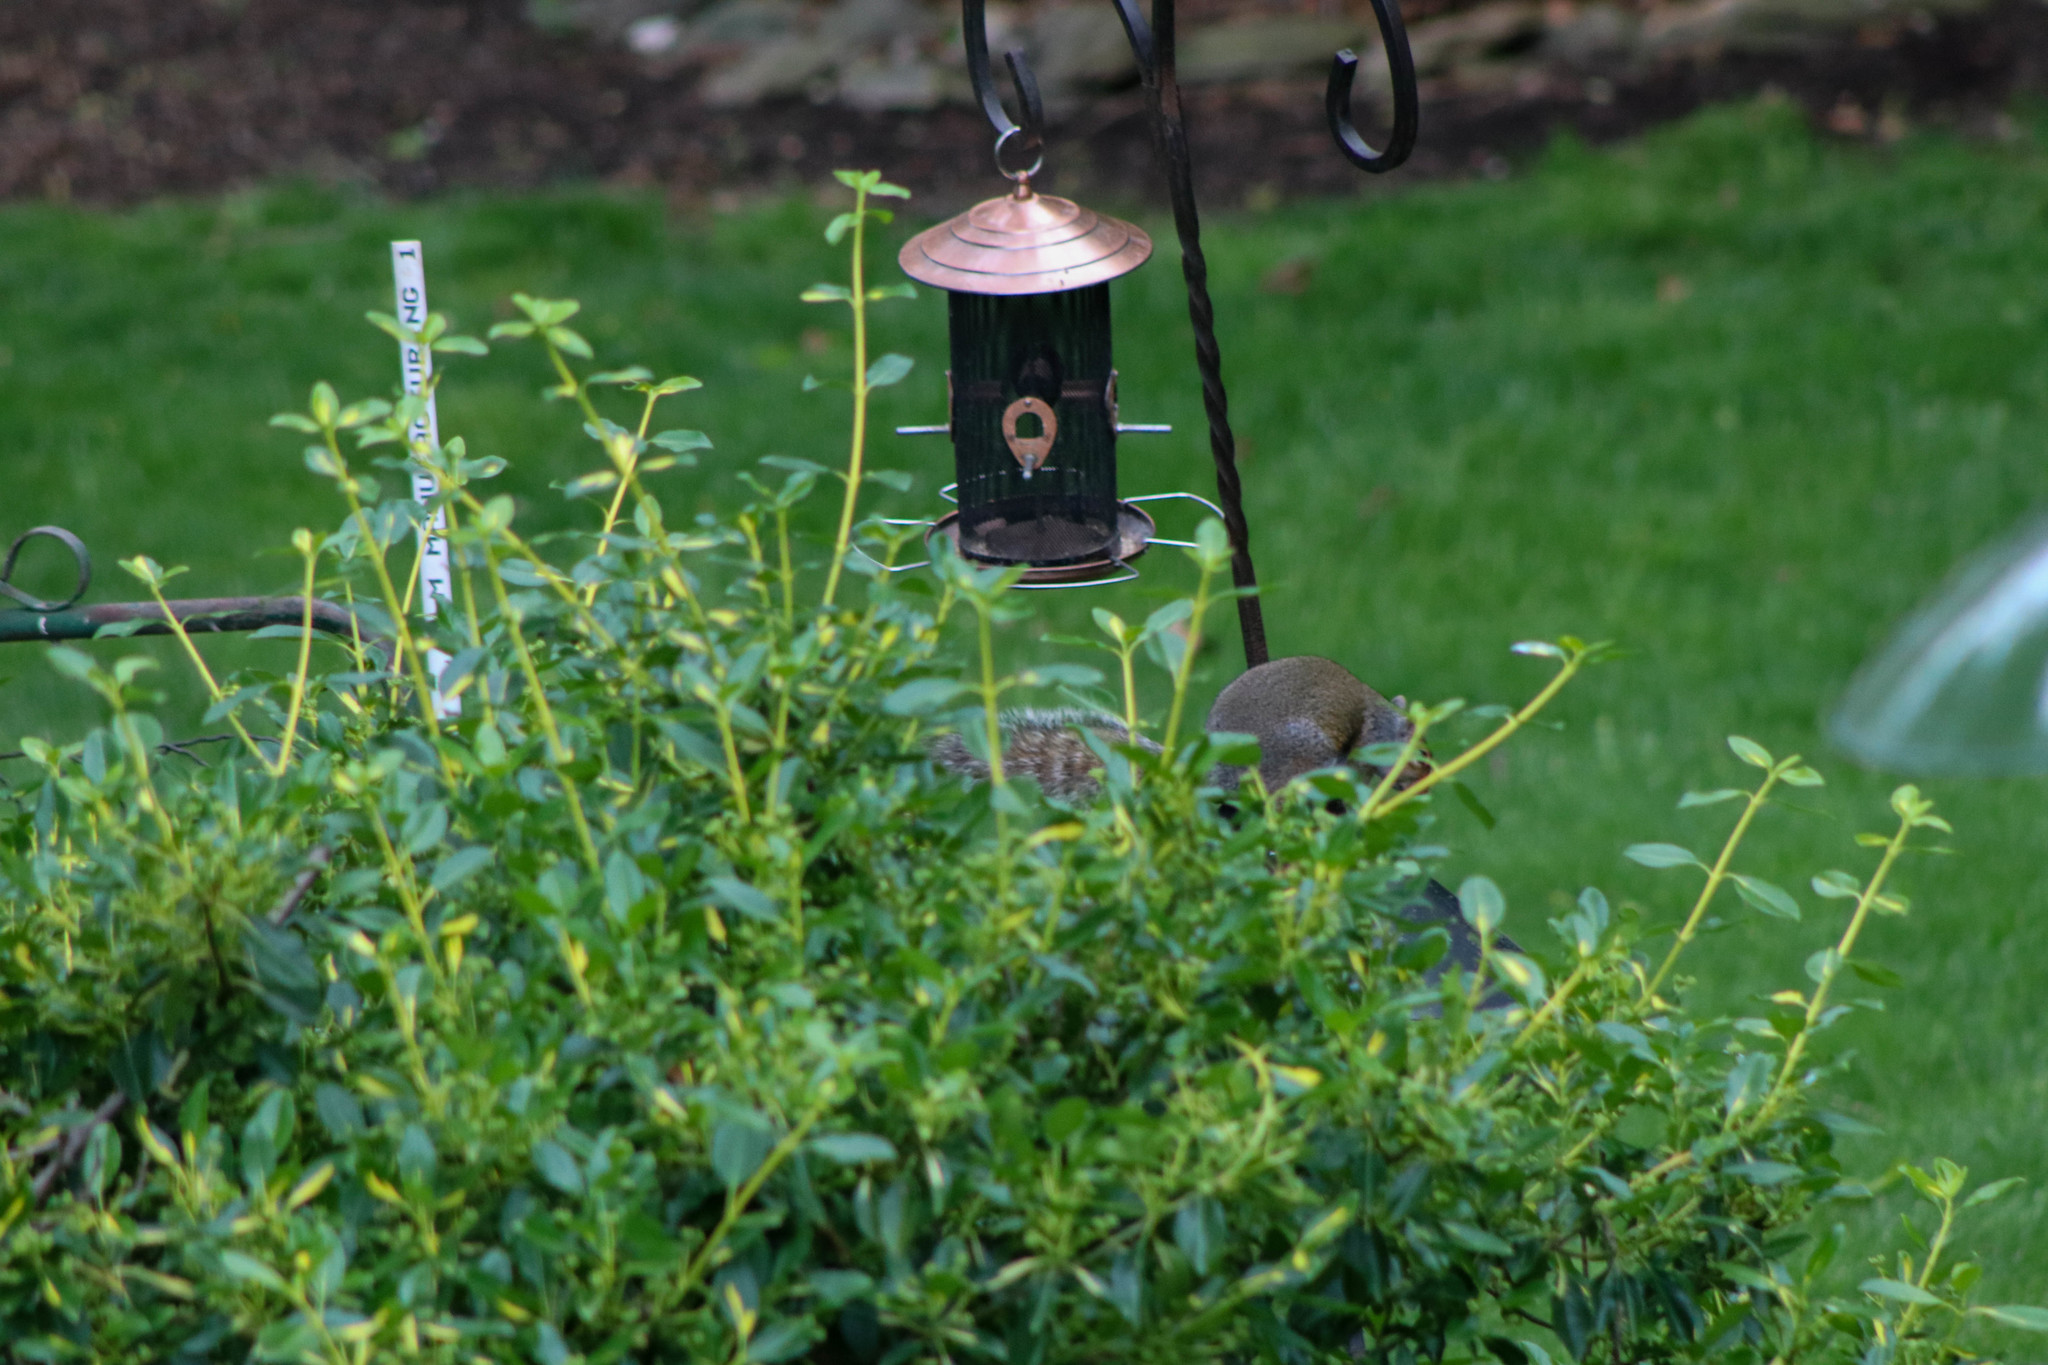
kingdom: Animalia
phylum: Chordata
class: Mammalia
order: Rodentia
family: Sciuridae
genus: Sciurus
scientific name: Sciurus carolinensis
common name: Eastern gray squirrel
